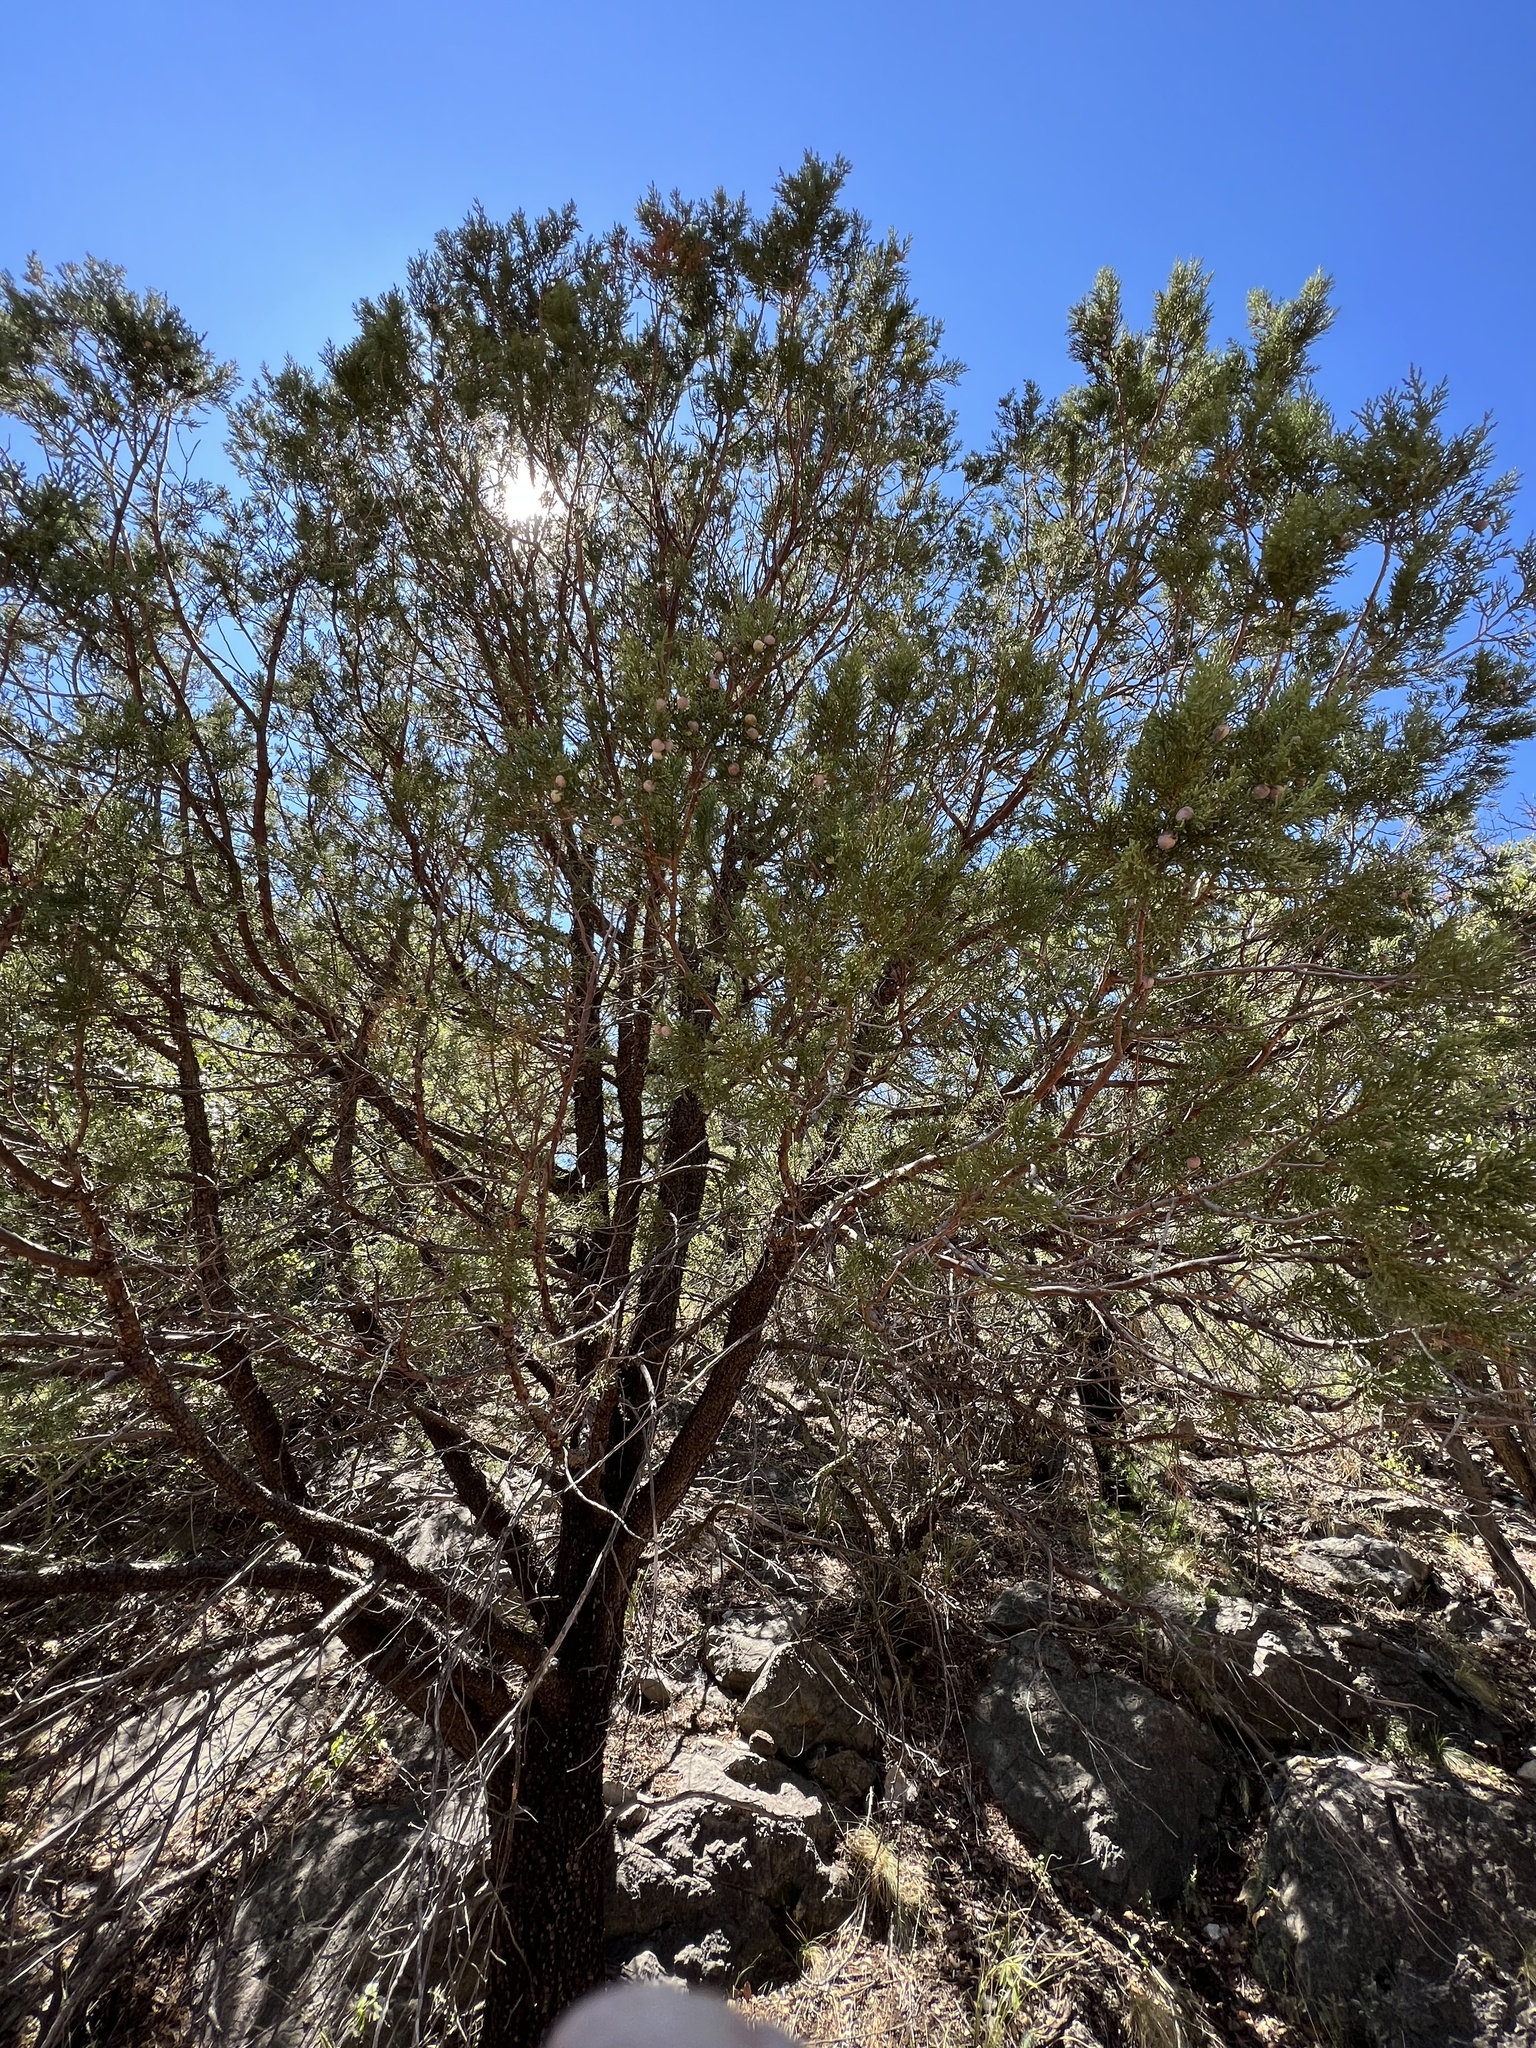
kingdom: Plantae
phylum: Tracheophyta
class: Pinopsida
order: Pinales
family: Cupressaceae
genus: Juniperus
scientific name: Juniperus deppeana
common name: Alligator juniper
